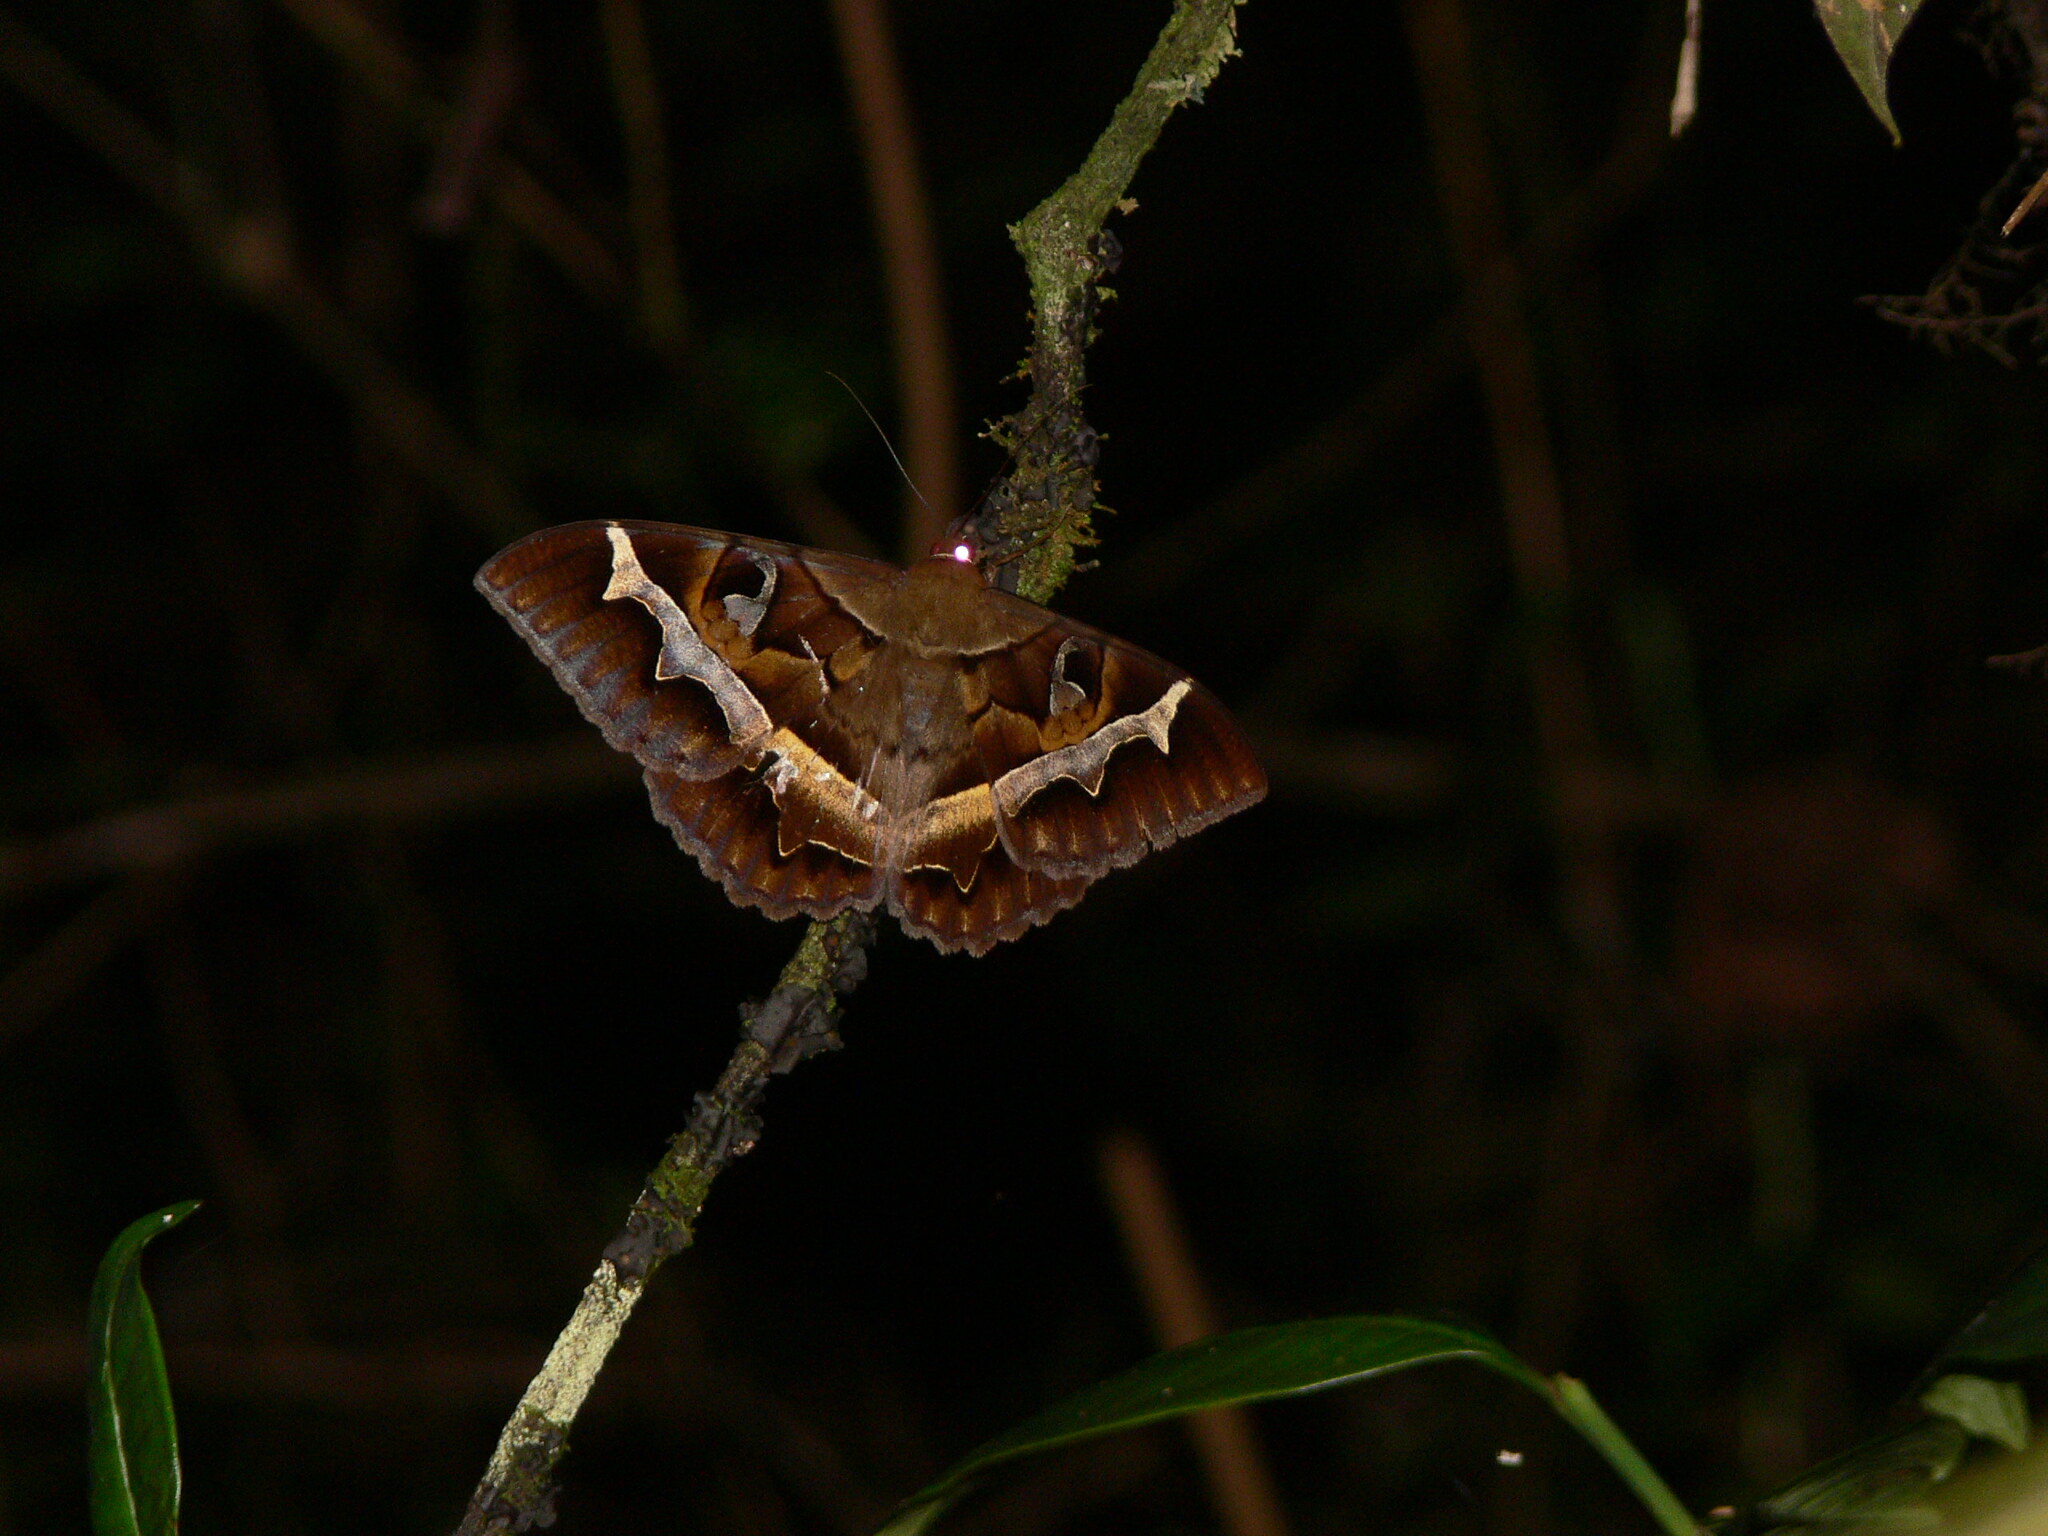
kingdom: Animalia
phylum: Arthropoda
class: Insecta
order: Lepidoptera
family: Erebidae
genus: Melipotis
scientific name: Melipotis perpendicularis
